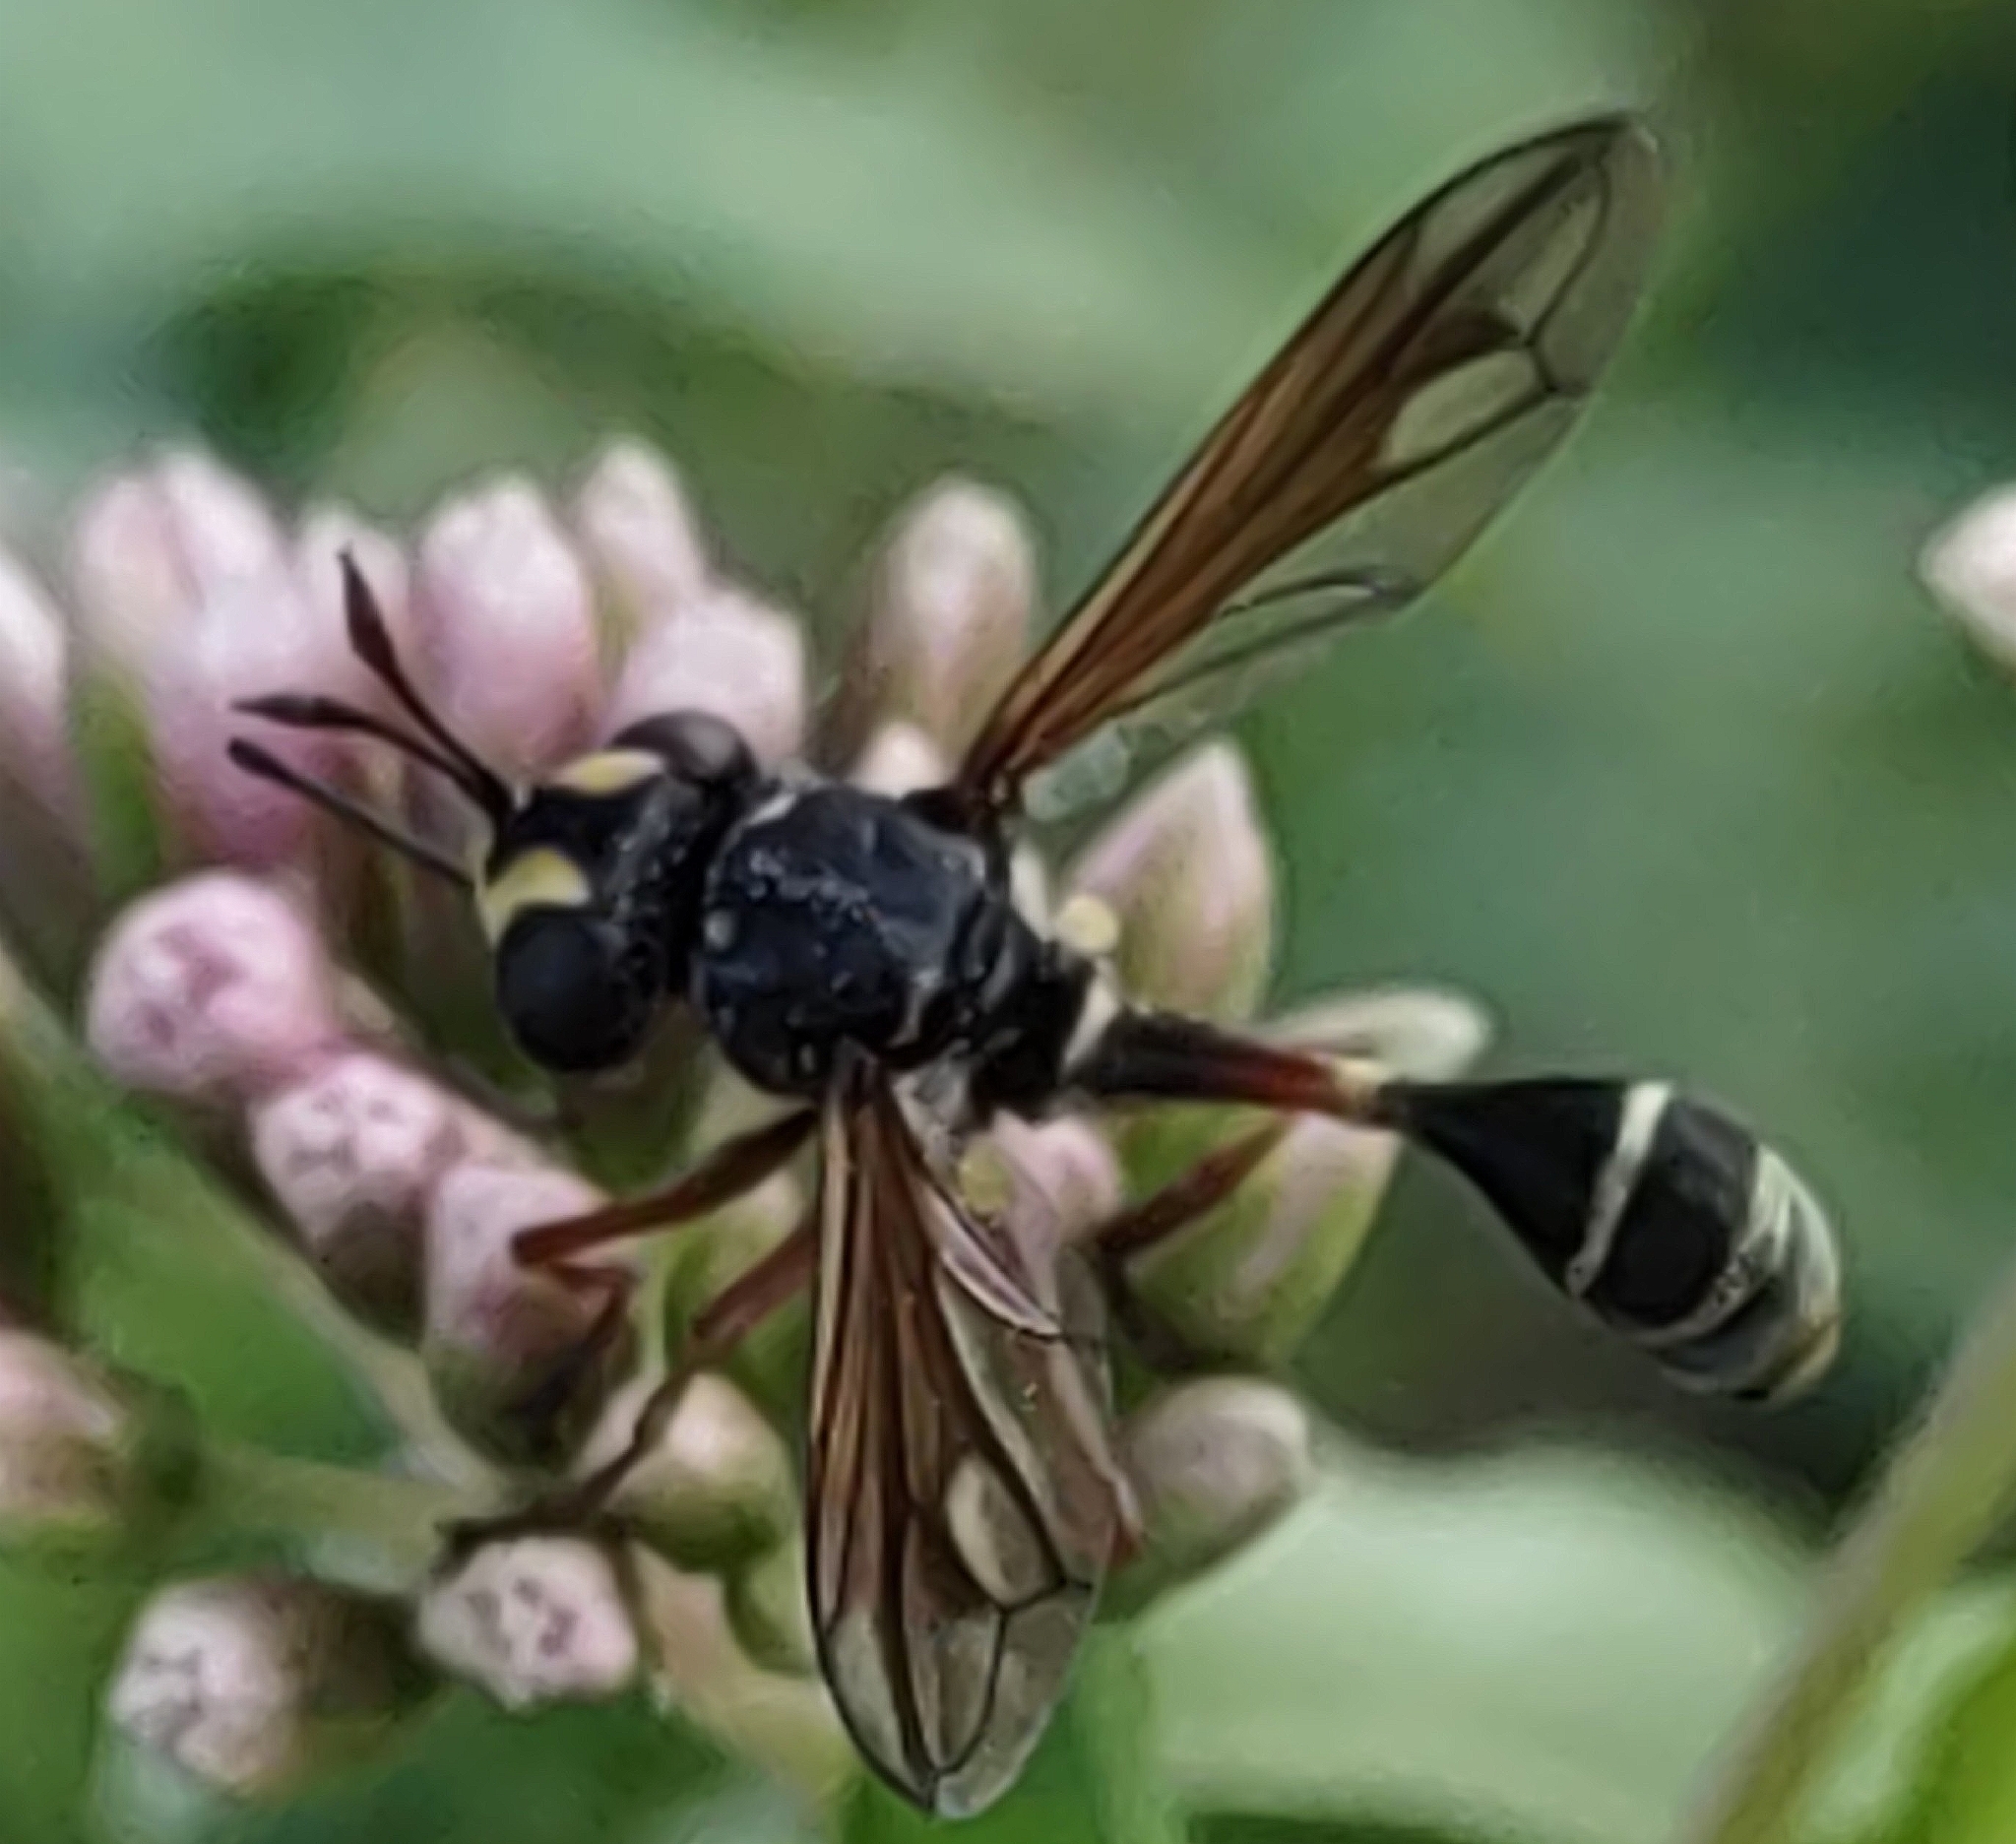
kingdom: Animalia
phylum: Arthropoda
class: Insecta
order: Diptera
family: Conopidae
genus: Physocephala
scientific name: Physocephala rufipes
